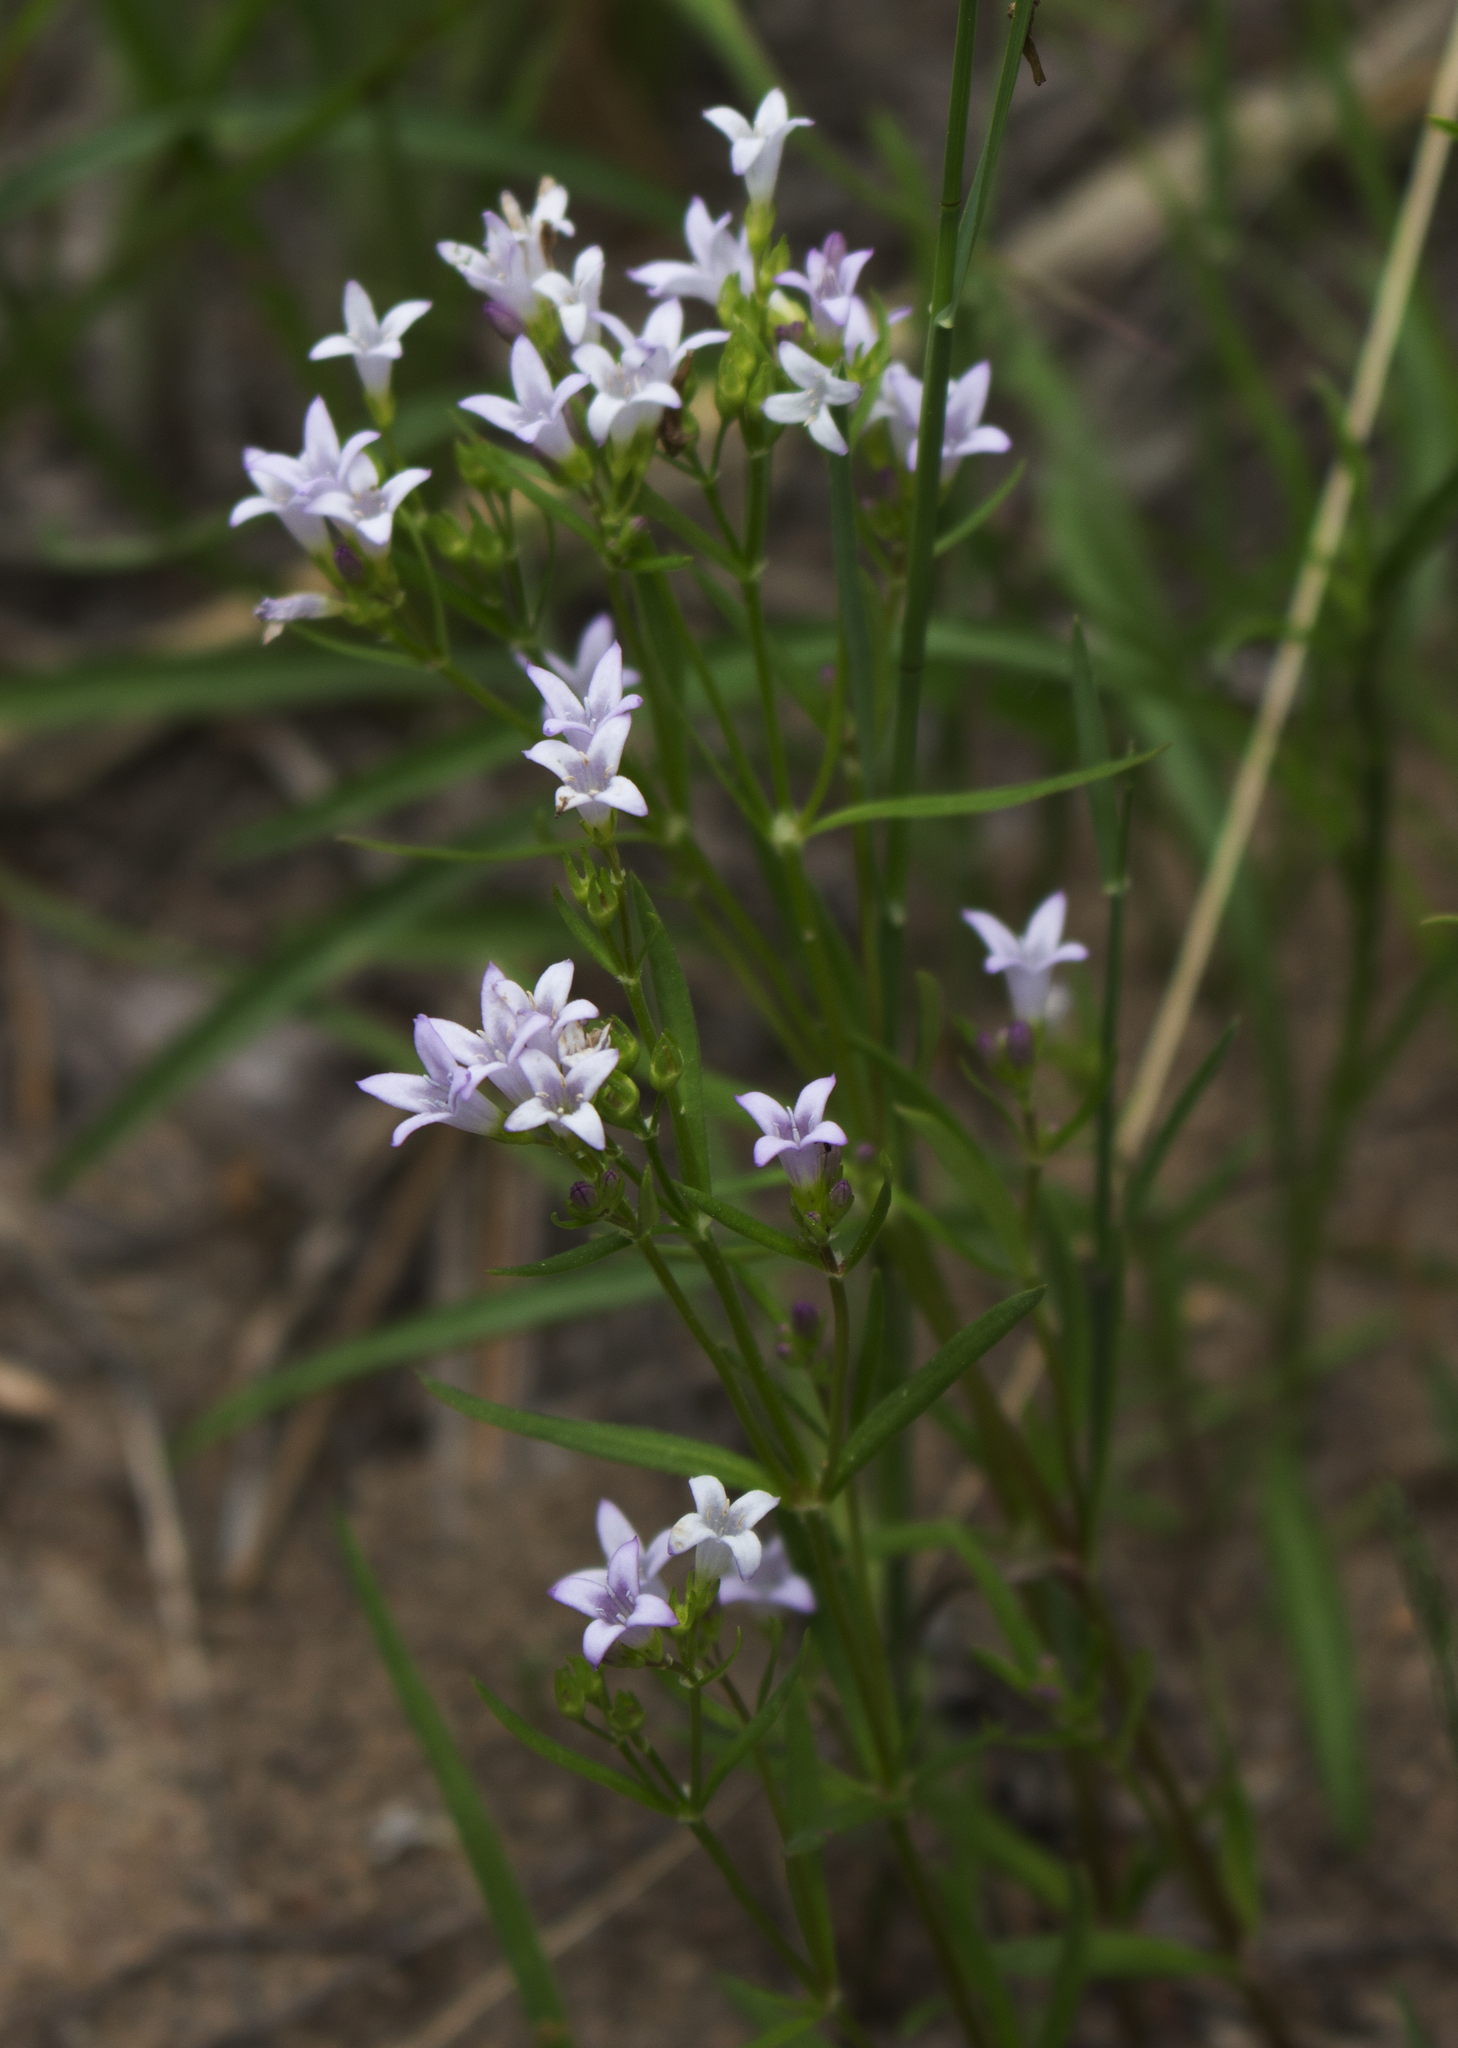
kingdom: Plantae
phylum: Tracheophyta
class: Magnoliopsida
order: Gentianales
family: Rubiaceae
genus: Houstonia
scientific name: Houstonia longifolia
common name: Long-leaved bluets
